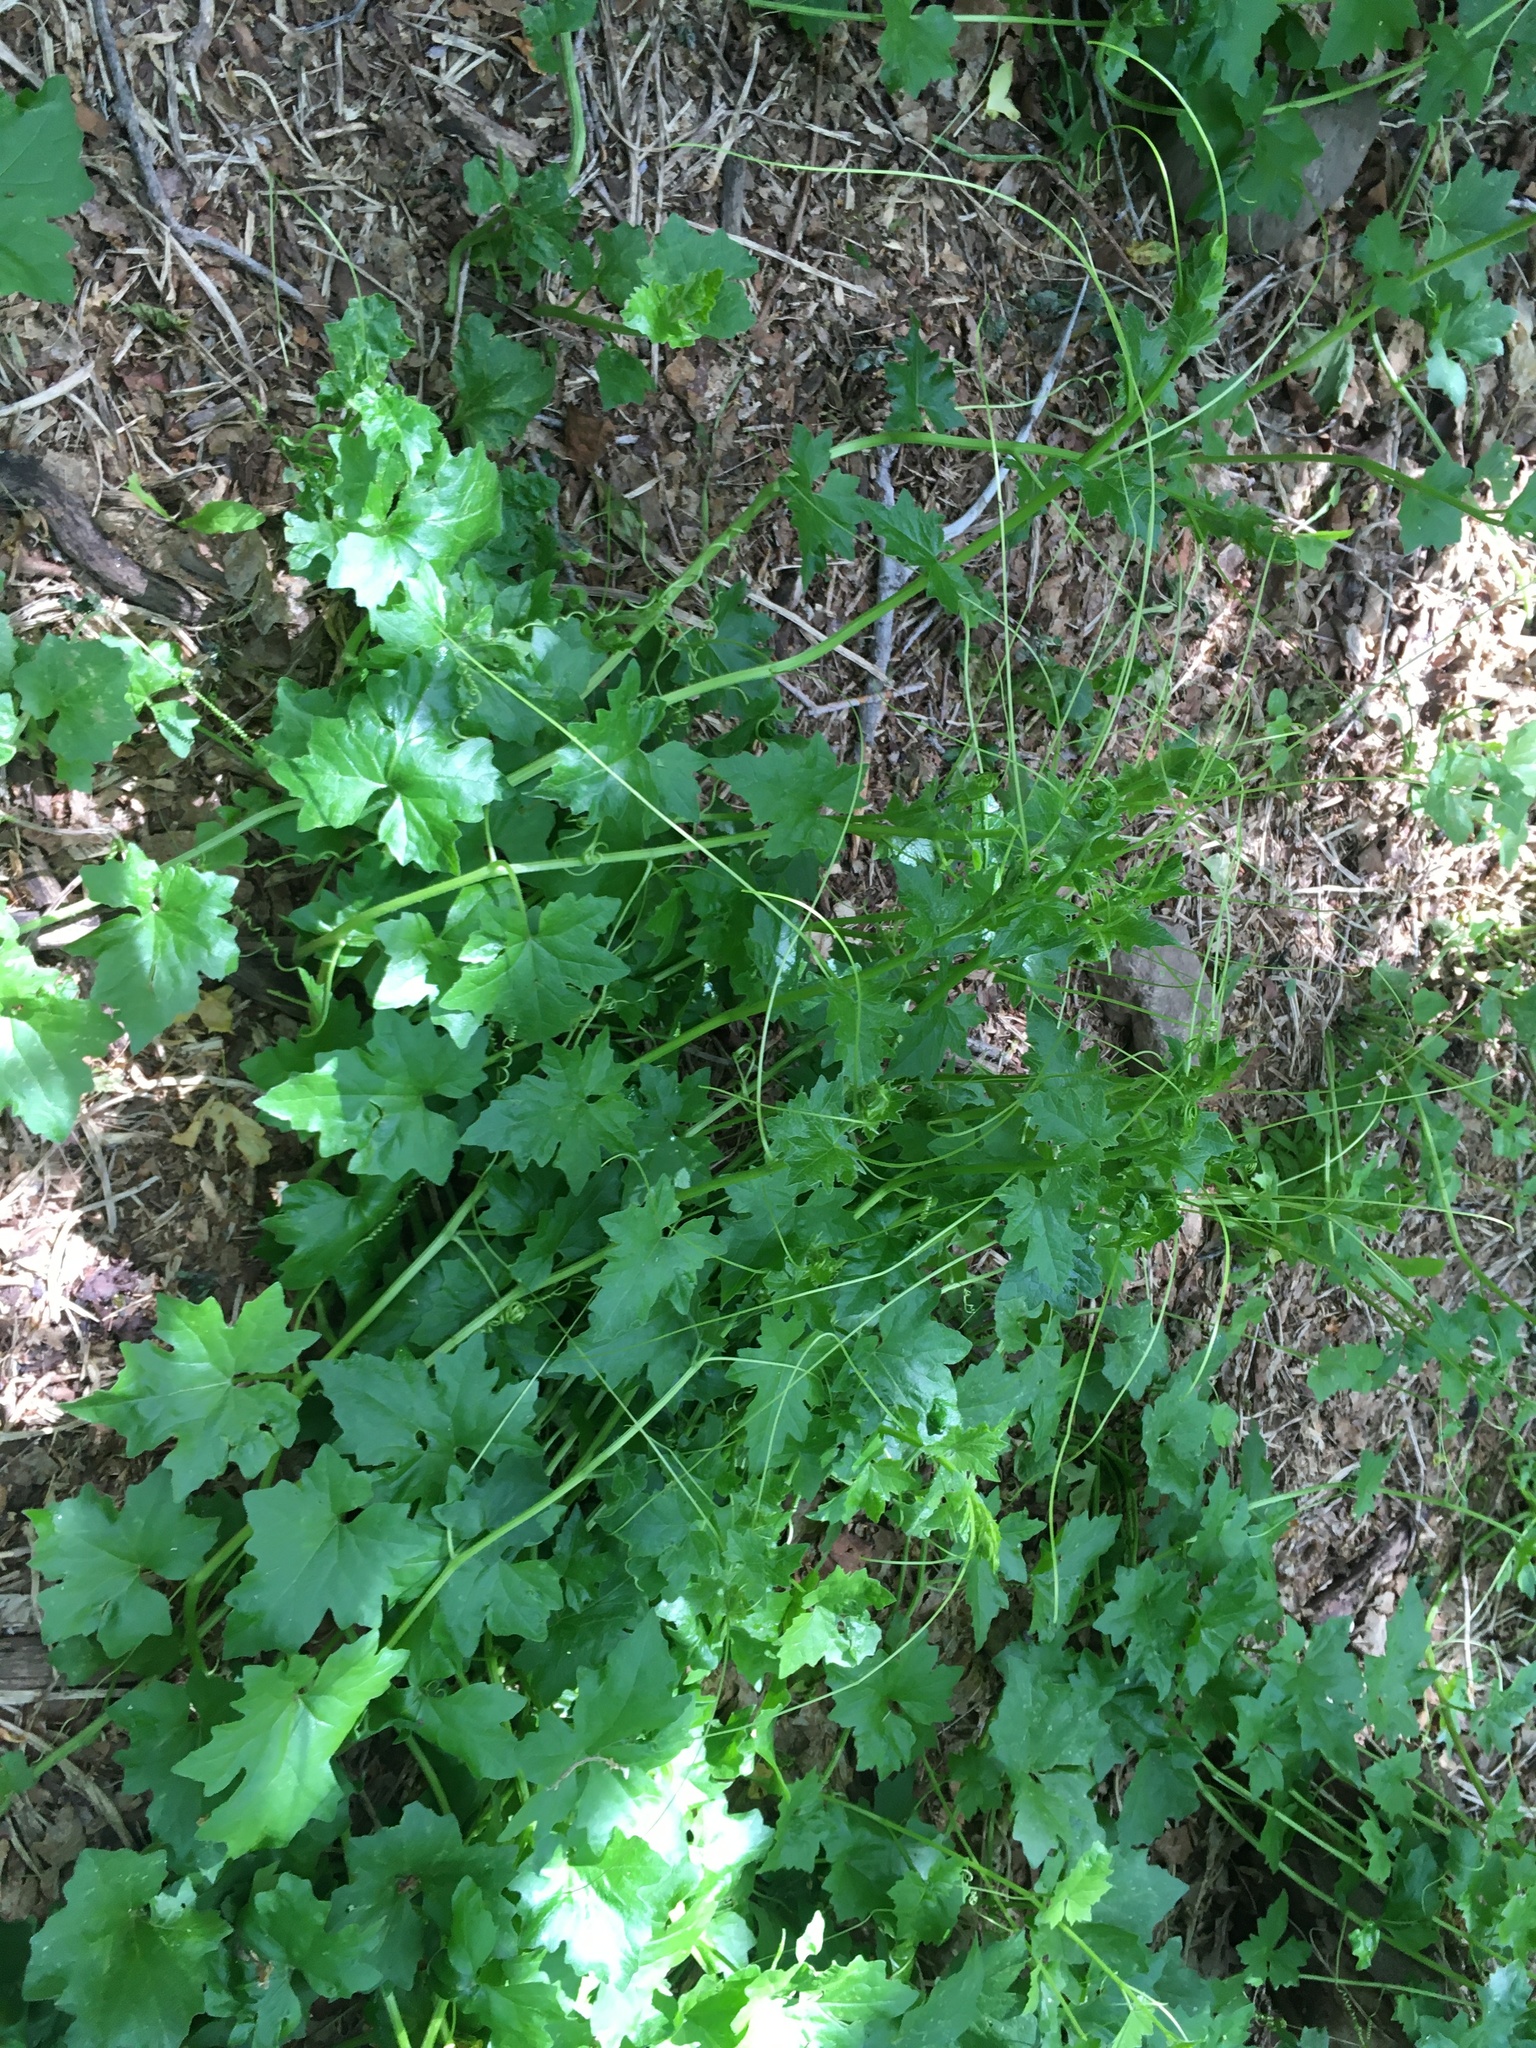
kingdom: Plantae
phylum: Tracheophyta
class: Magnoliopsida
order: Cucurbitales
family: Cucurbitaceae
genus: Echinocystis
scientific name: Echinocystis lobata
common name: Wild cucumber
